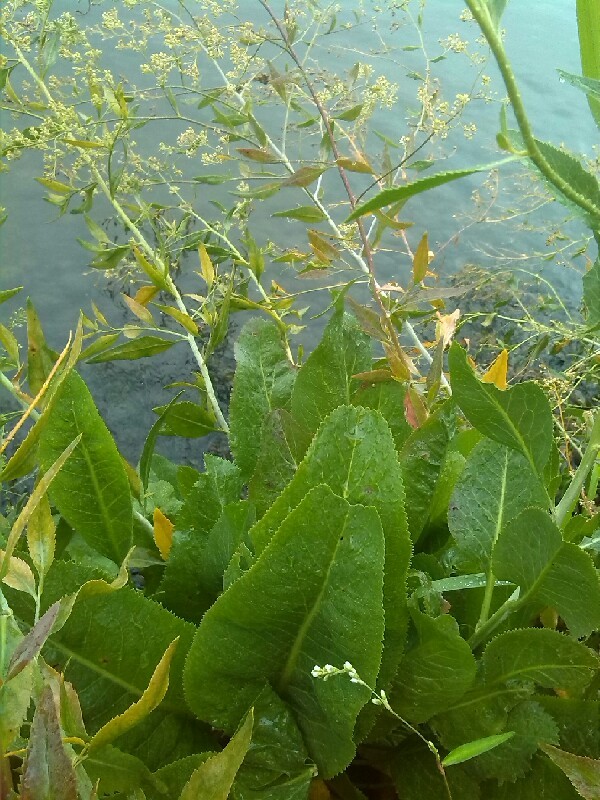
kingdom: Plantae
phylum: Tracheophyta
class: Magnoliopsida
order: Brassicales
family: Brassicaceae
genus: Lepidium
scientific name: Lepidium latifolium
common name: Dittander
